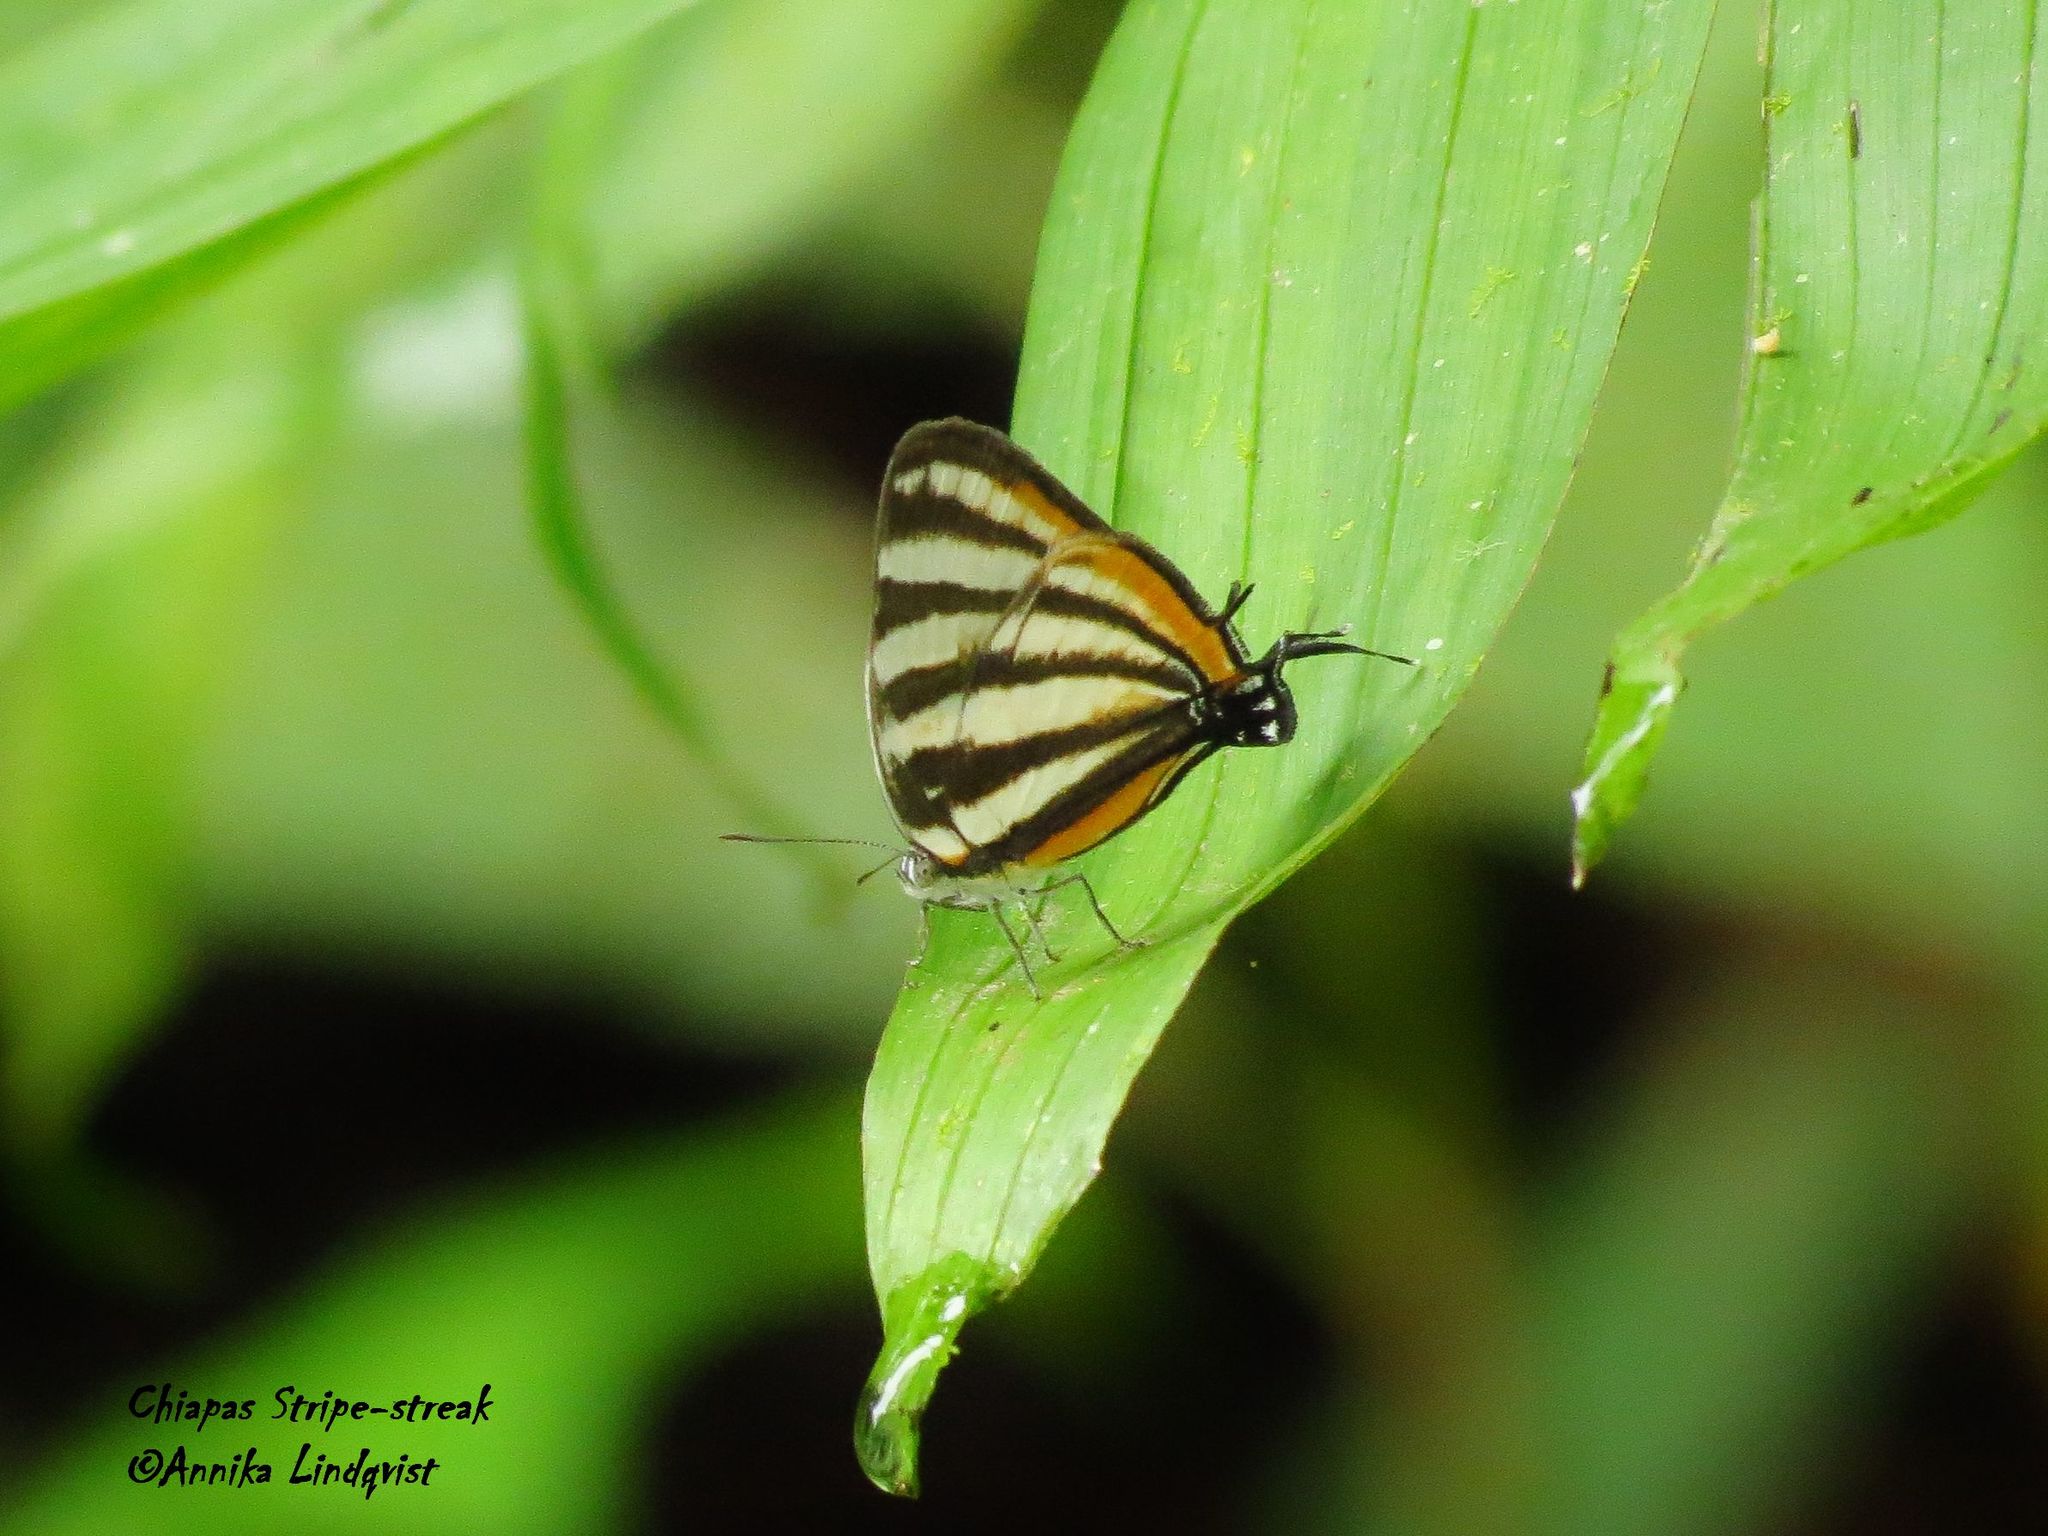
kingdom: Animalia
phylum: Arthropoda
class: Insecta
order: Lepidoptera
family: Lycaenidae
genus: Arawacus
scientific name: Arawacus togarna
